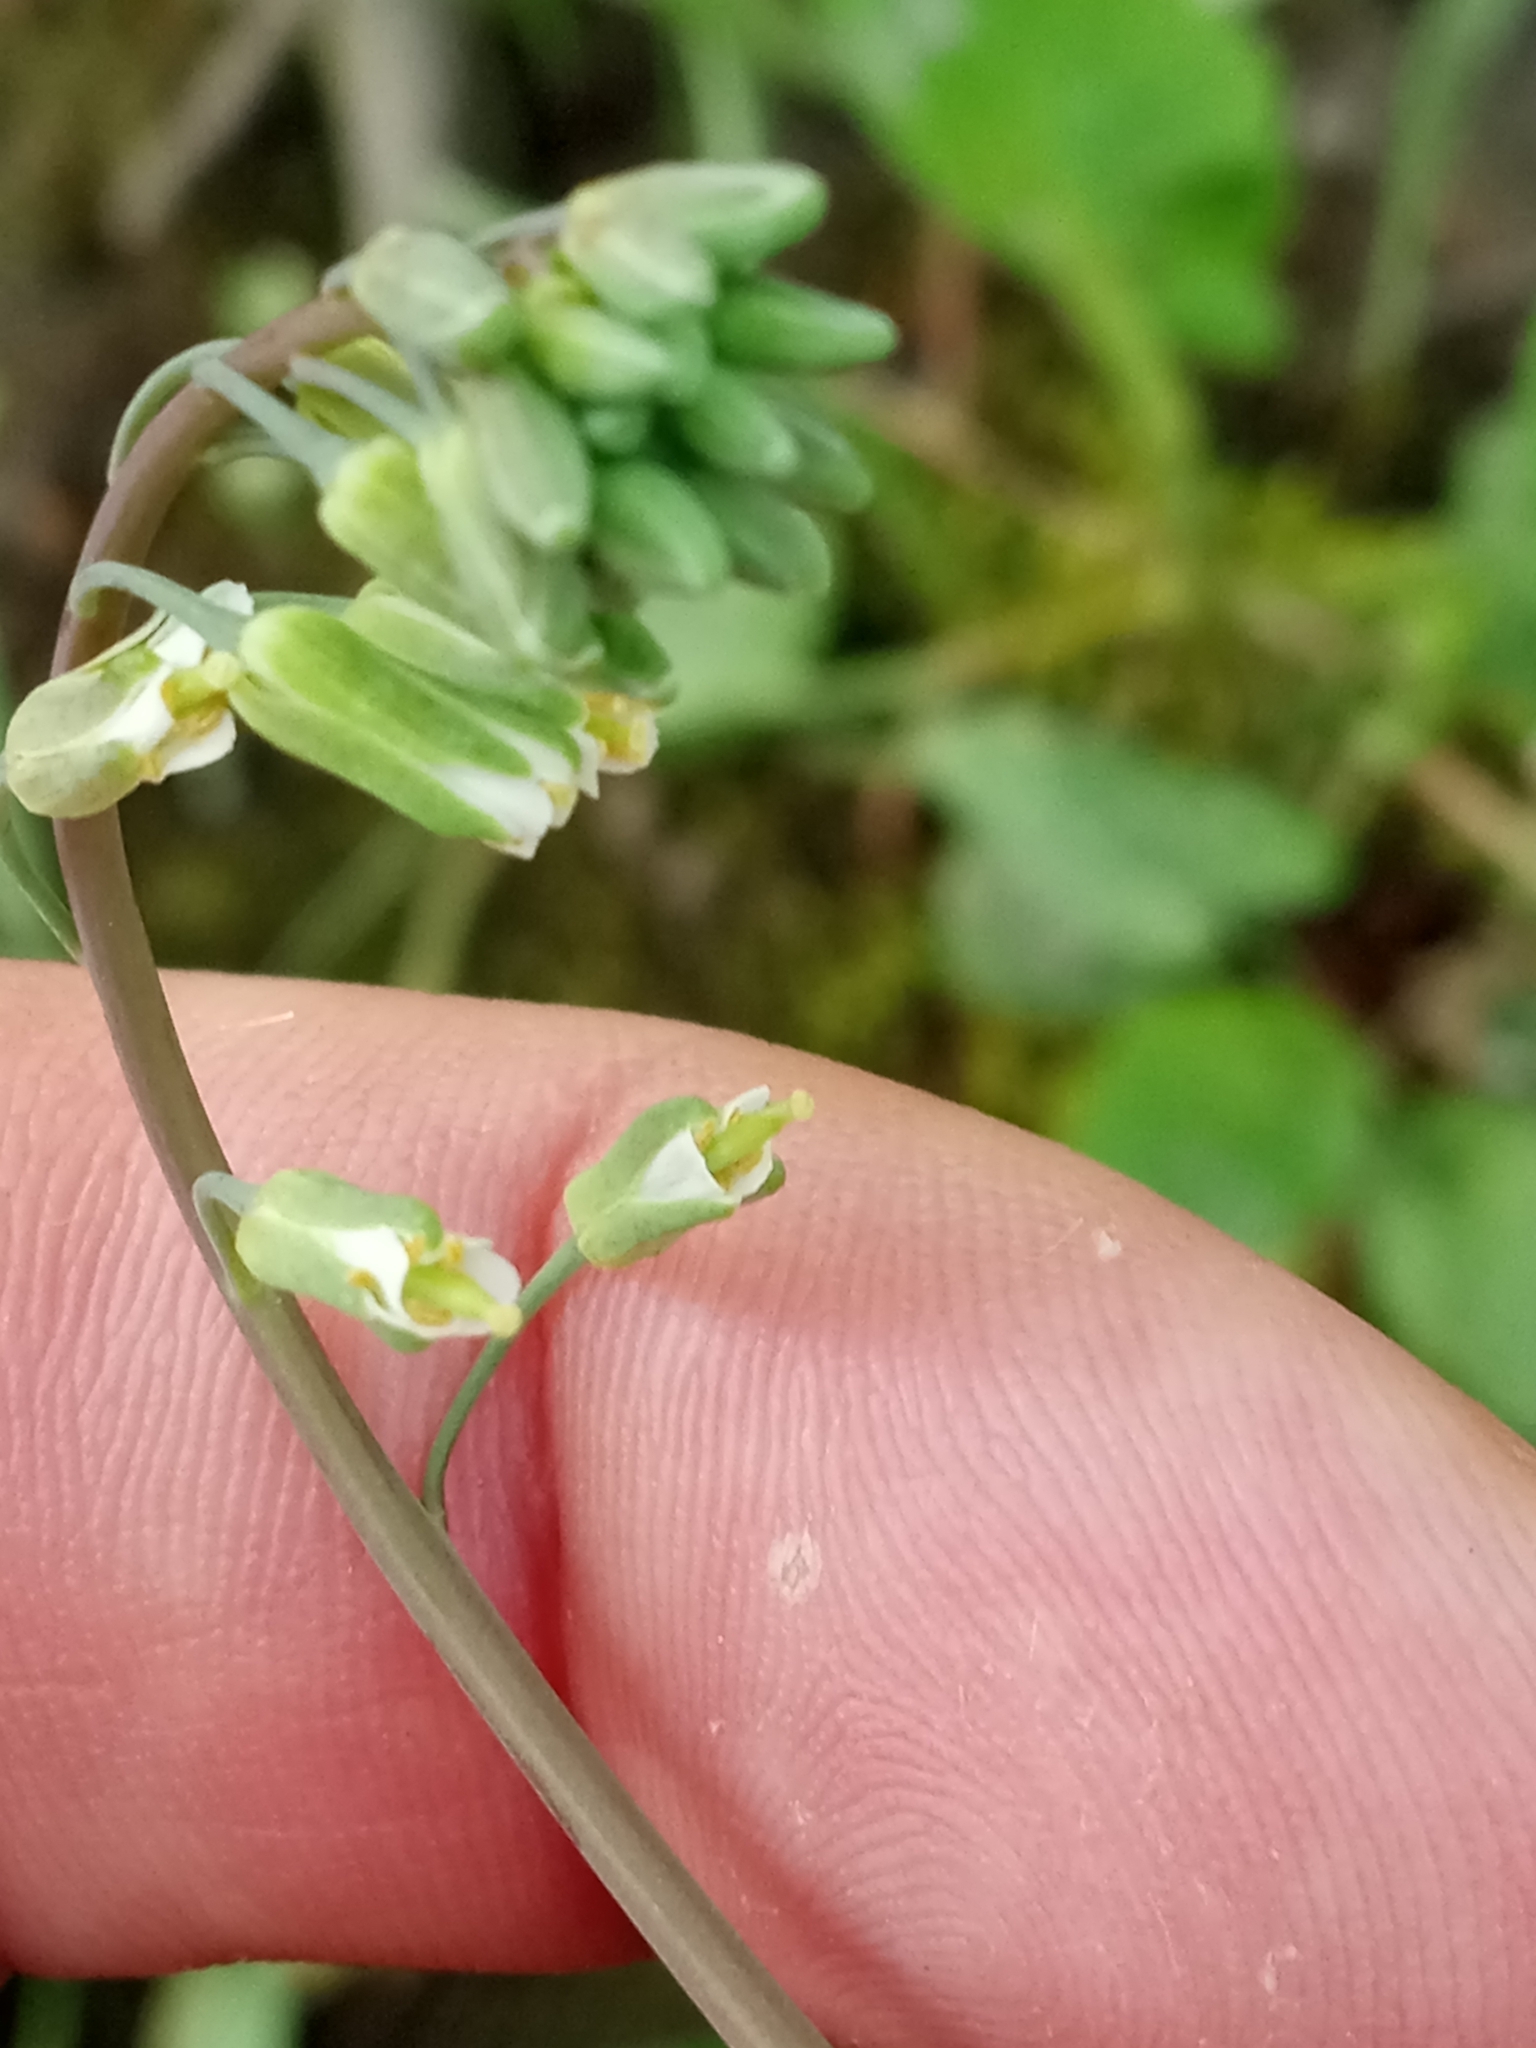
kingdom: Plantae
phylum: Tracheophyta
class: Magnoliopsida
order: Brassicales
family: Brassicaceae
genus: Borodinia
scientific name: Borodinia laevigata
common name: Smooth rockcress
